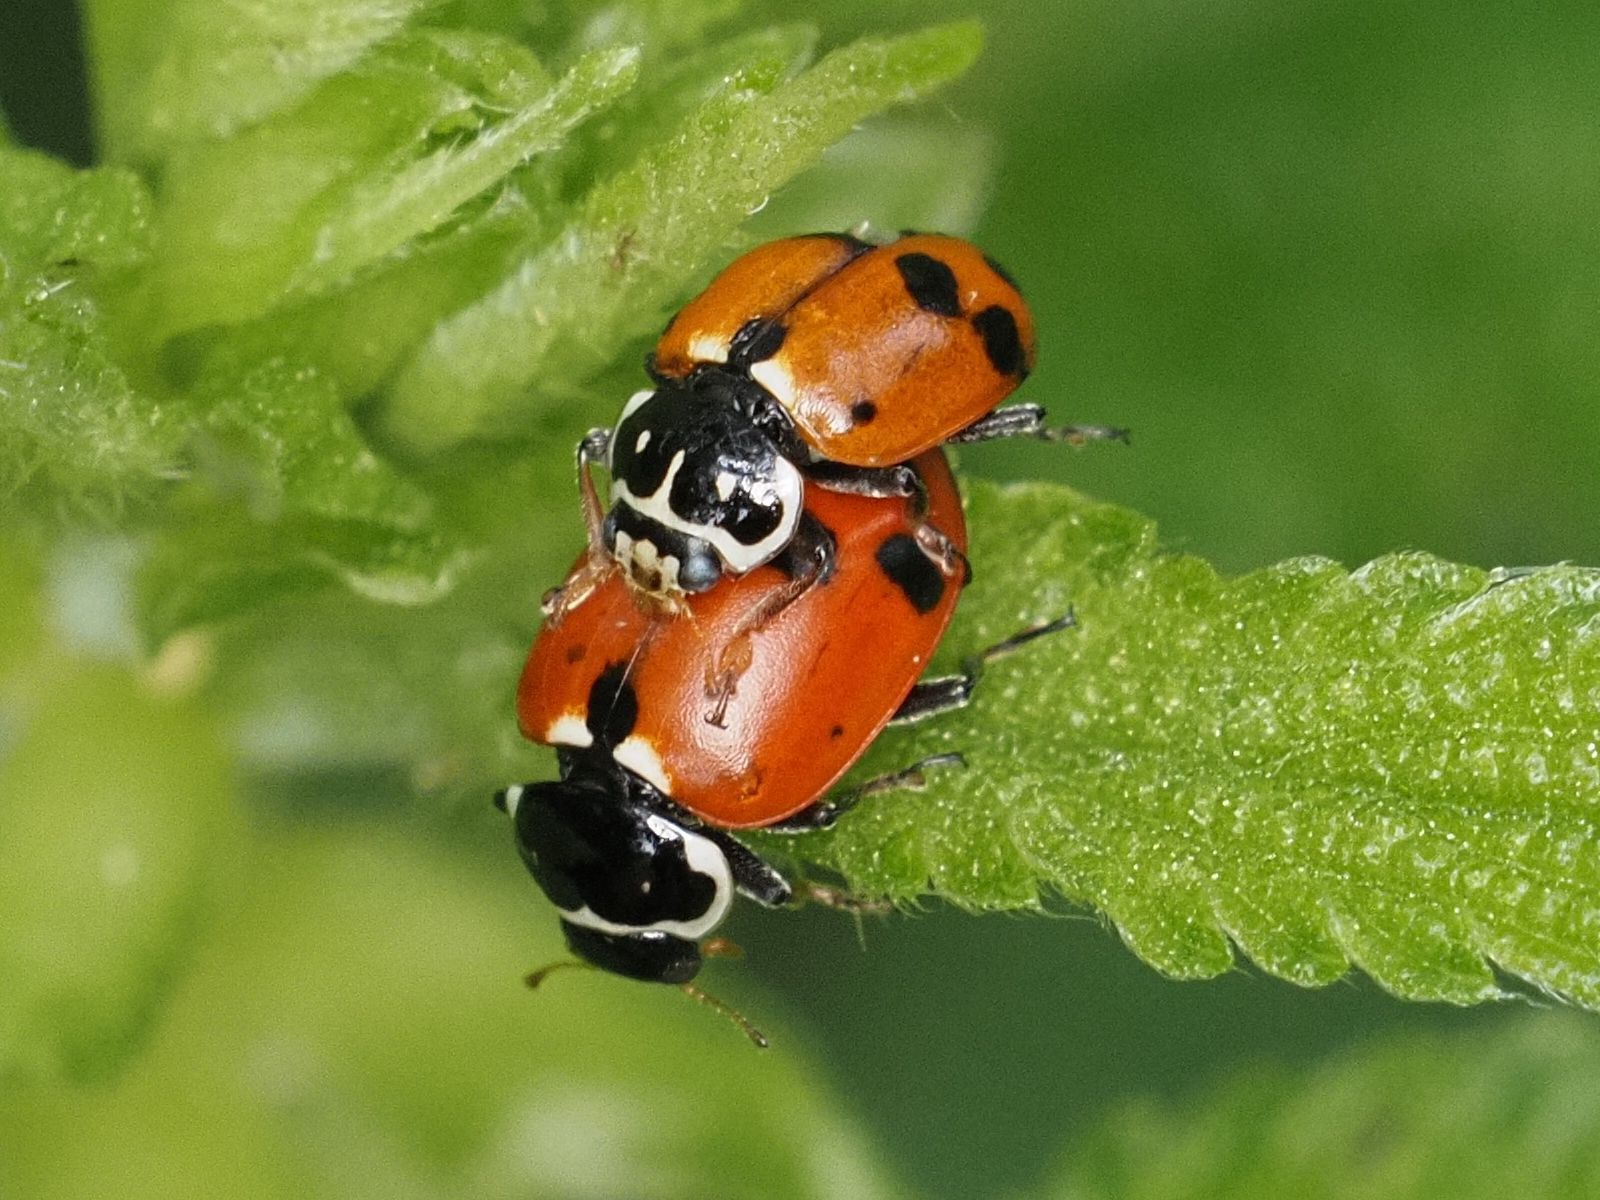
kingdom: Animalia
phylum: Arthropoda
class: Insecta
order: Coleoptera
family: Coccinellidae
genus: Hippodamia
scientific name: Hippodamia variegata
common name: Ladybird beetle
